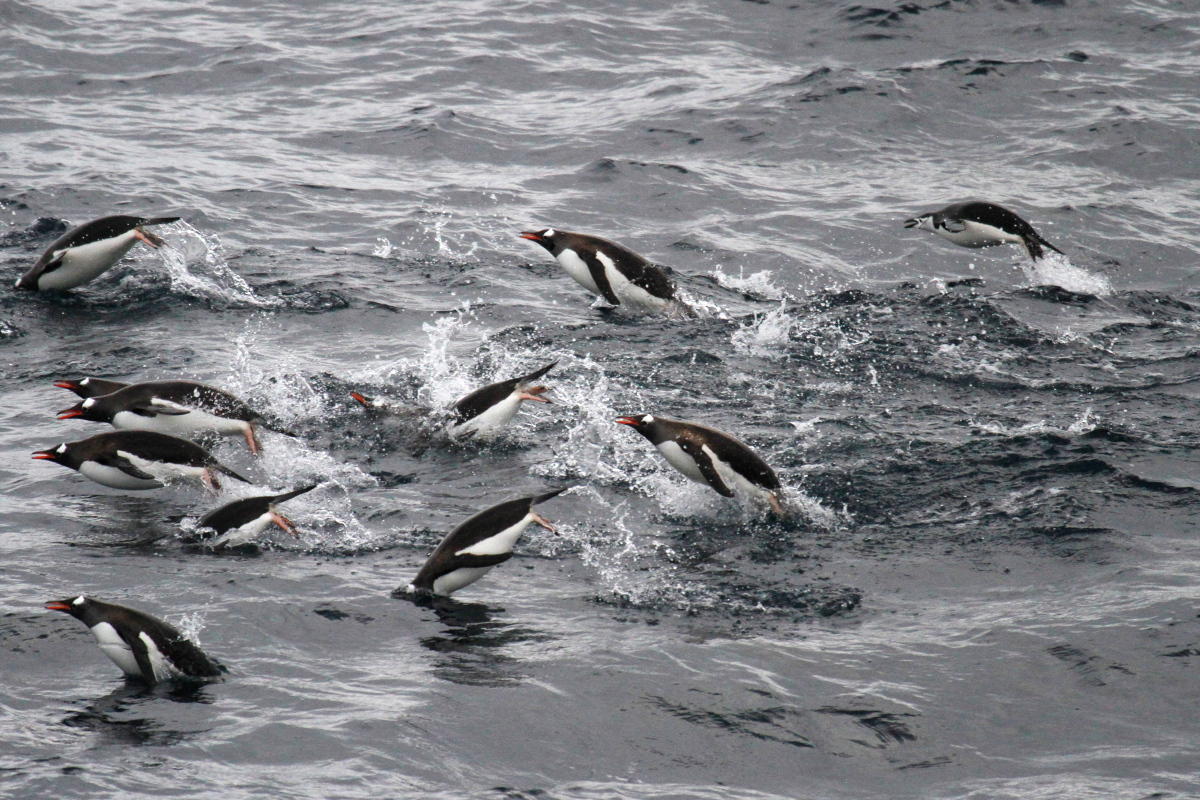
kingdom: Animalia
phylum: Chordata
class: Aves
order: Sphenisciformes
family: Spheniscidae
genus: Pygoscelis
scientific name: Pygoscelis papua
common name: Gentoo penguin
